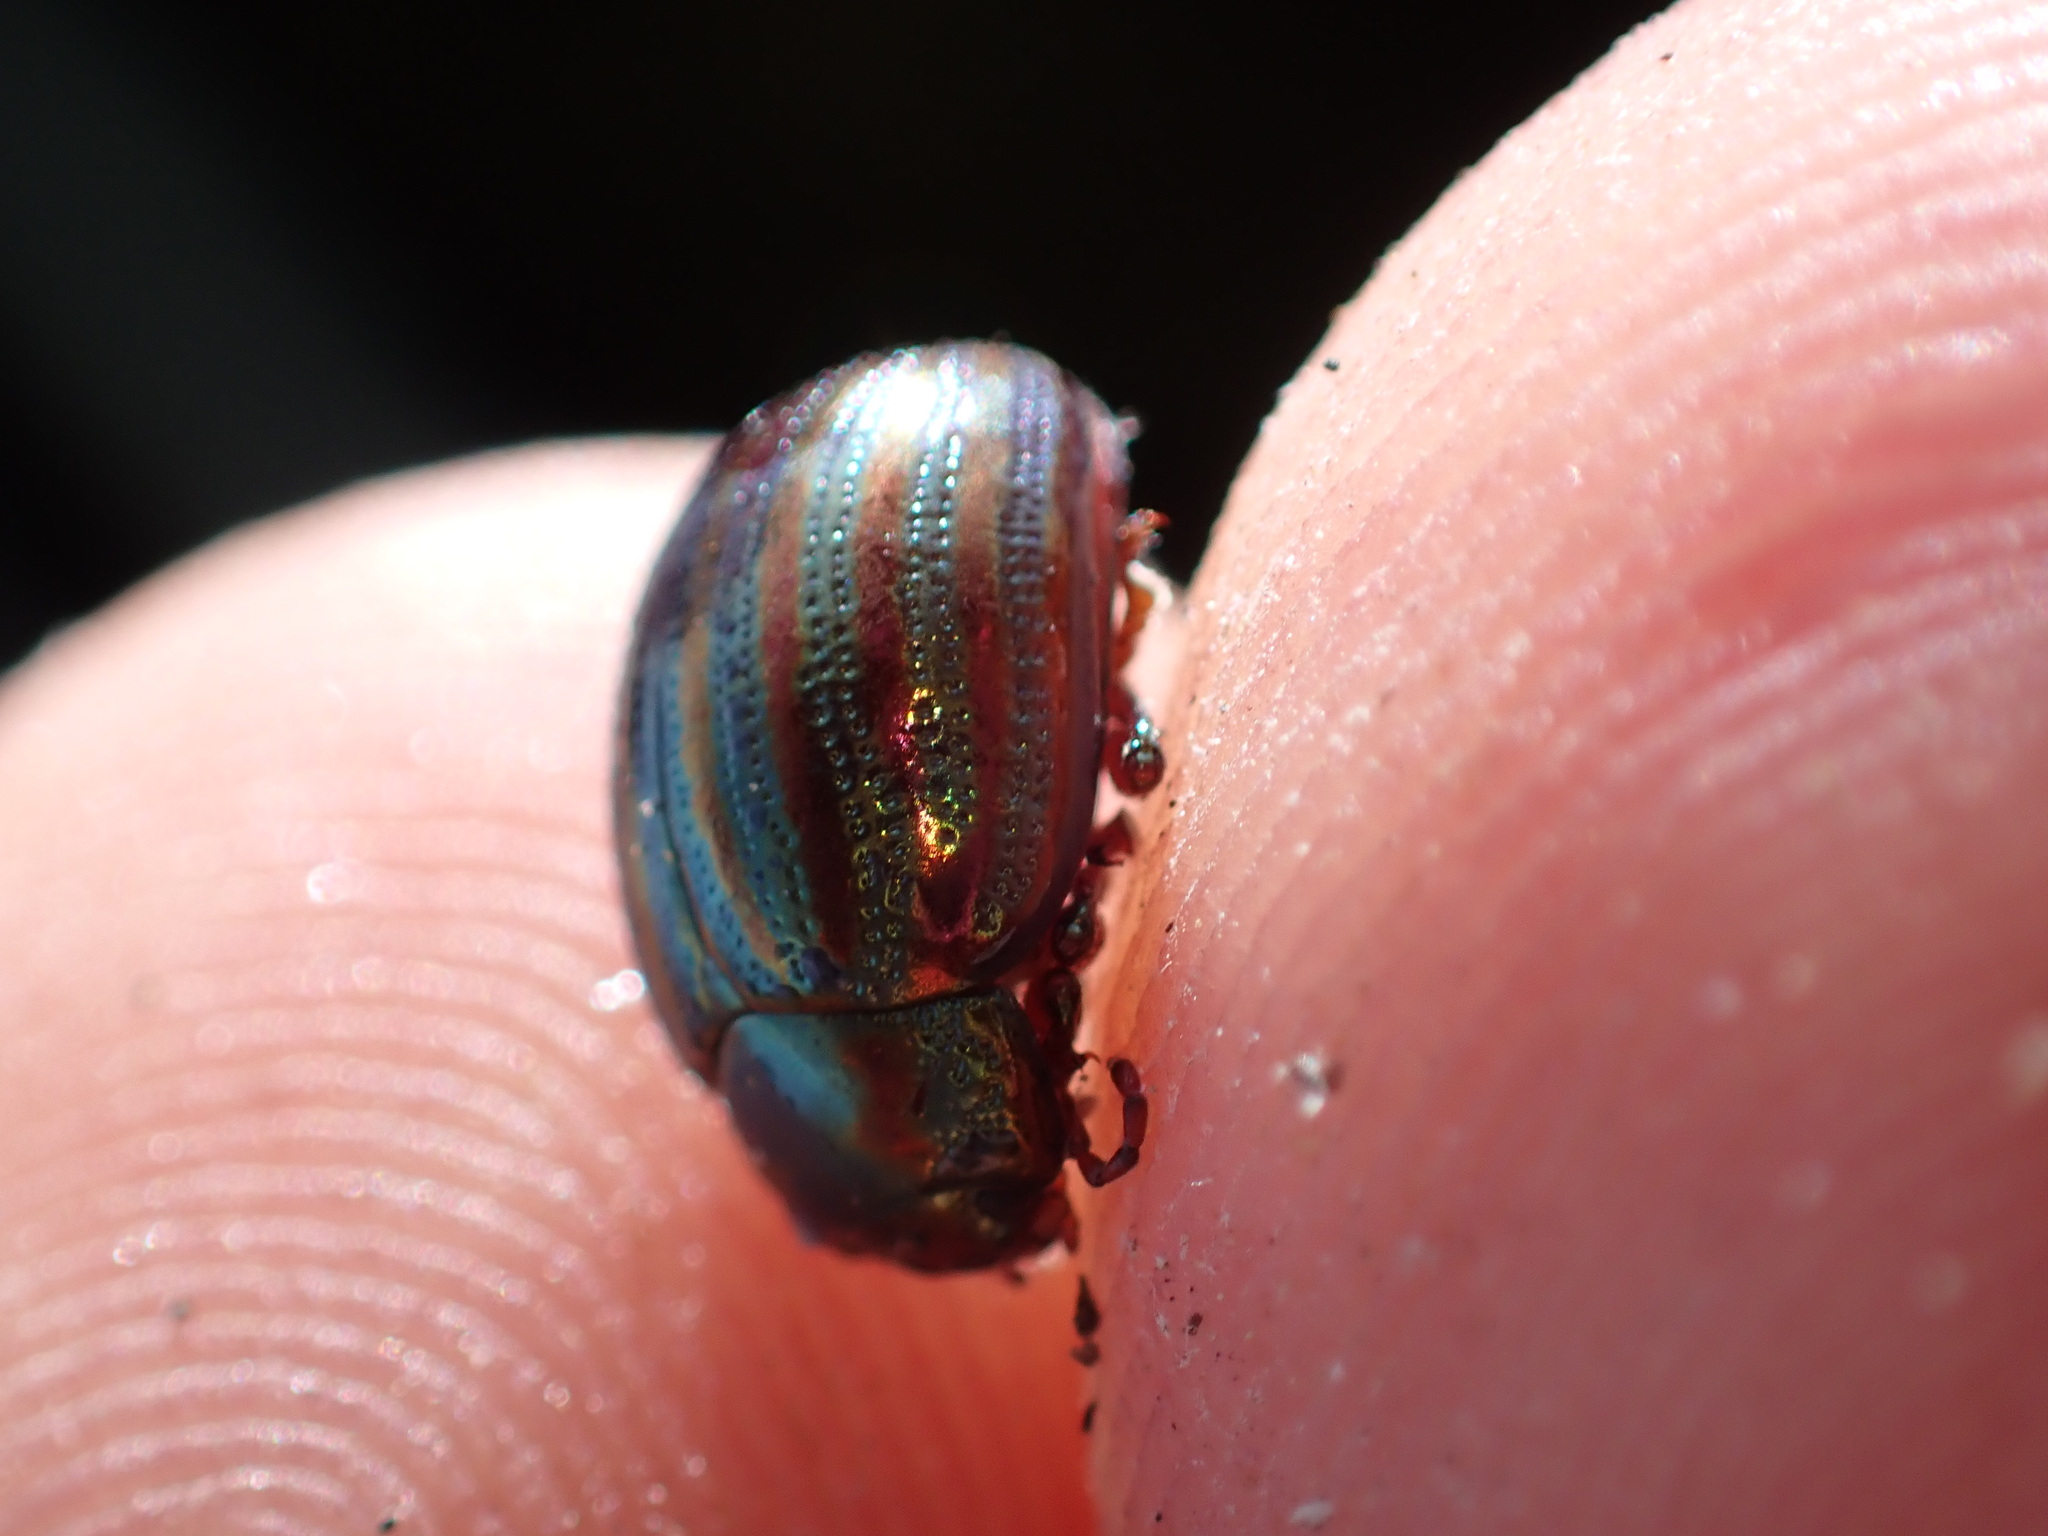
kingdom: Animalia
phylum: Arthropoda
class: Insecta
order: Coleoptera
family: Chrysomelidae
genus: Chrysolina
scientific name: Chrysolina americana
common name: Rosemary beetle
